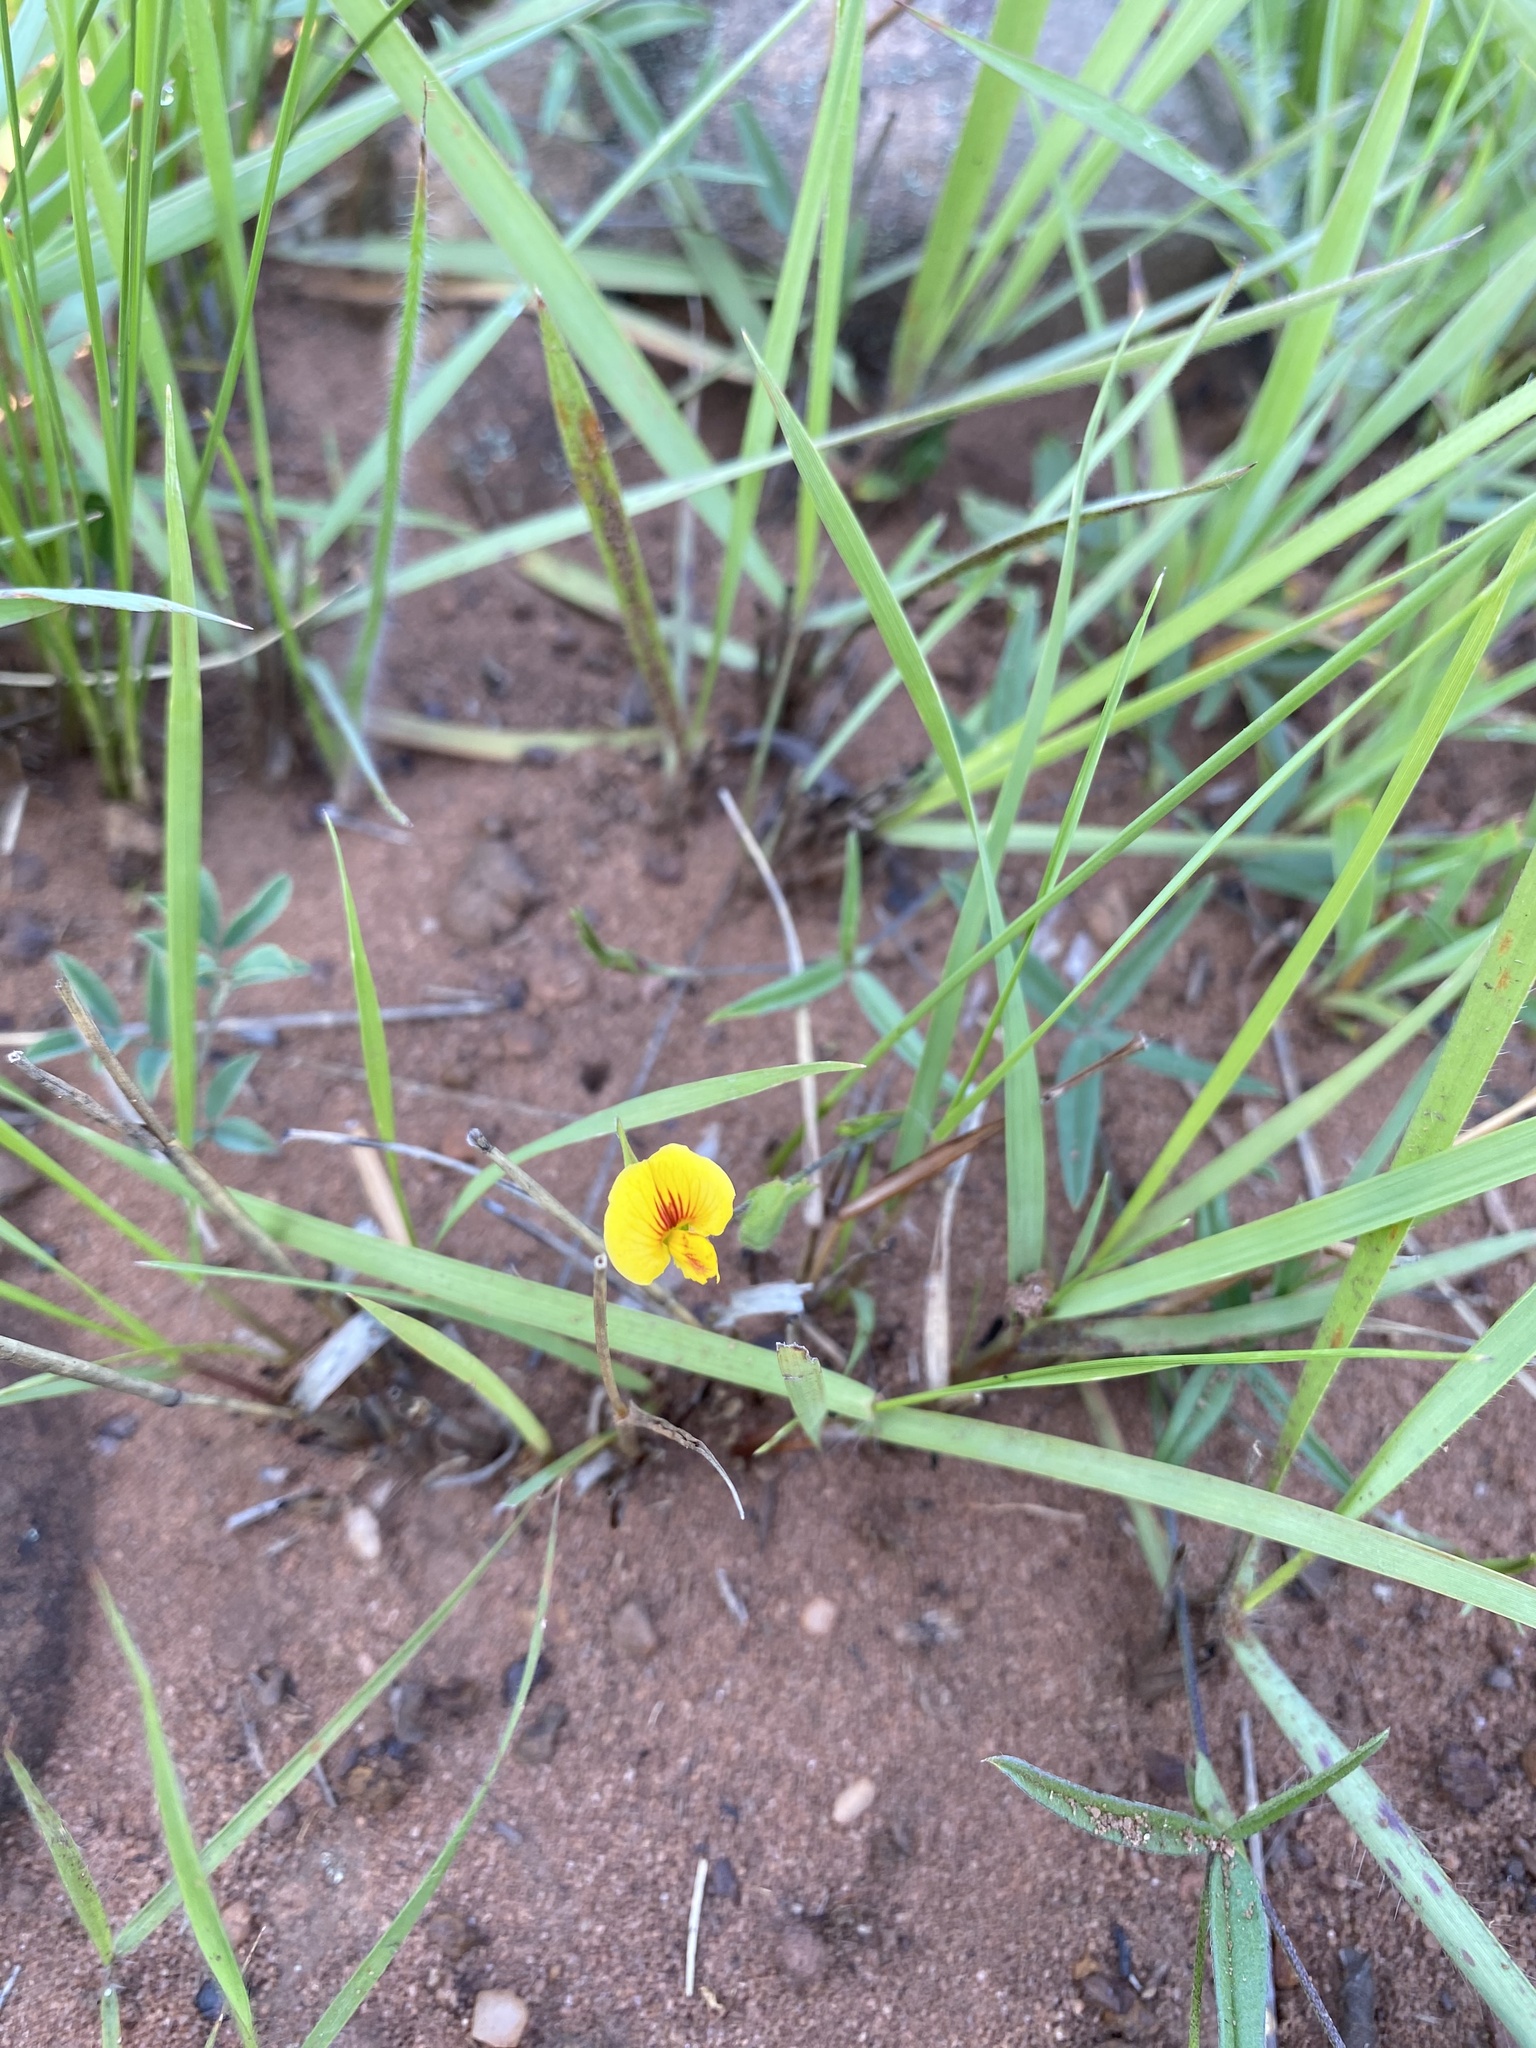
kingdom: Plantae
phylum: Tracheophyta
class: Magnoliopsida
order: Fabales
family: Fabaceae
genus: Zornia
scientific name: Zornia capensis
